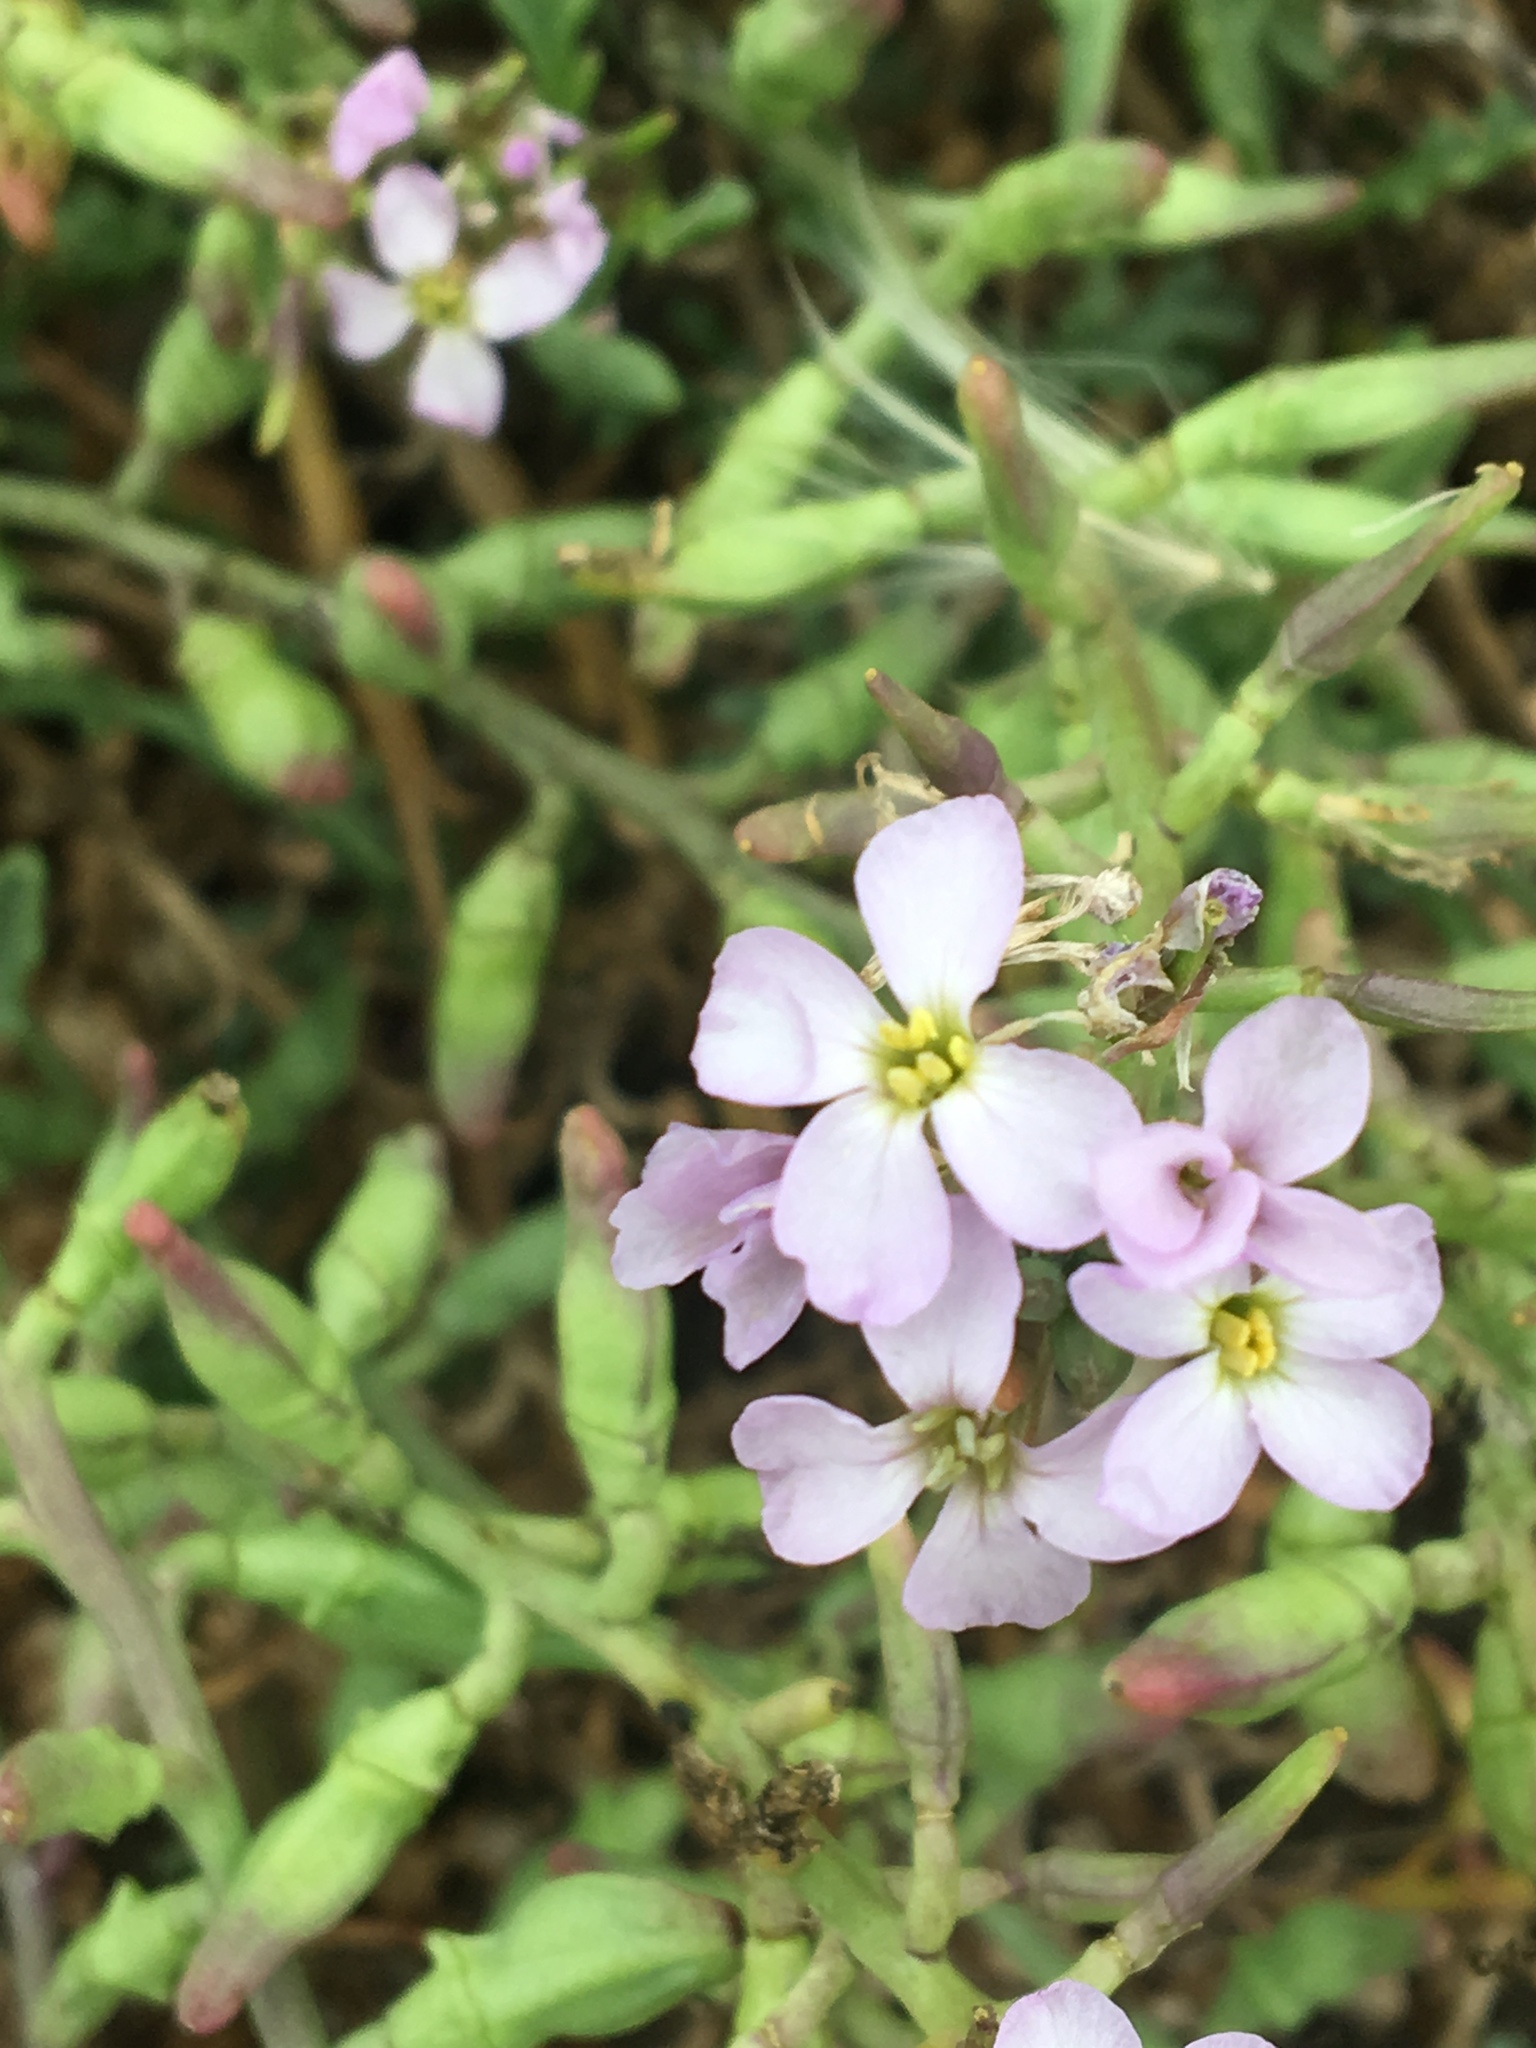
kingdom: Plantae
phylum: Tracheophyta
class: Magnoliopsida
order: Brassicales
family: Brassicaceae
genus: Cakile
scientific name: Cakile maritima
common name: Sea rocket
